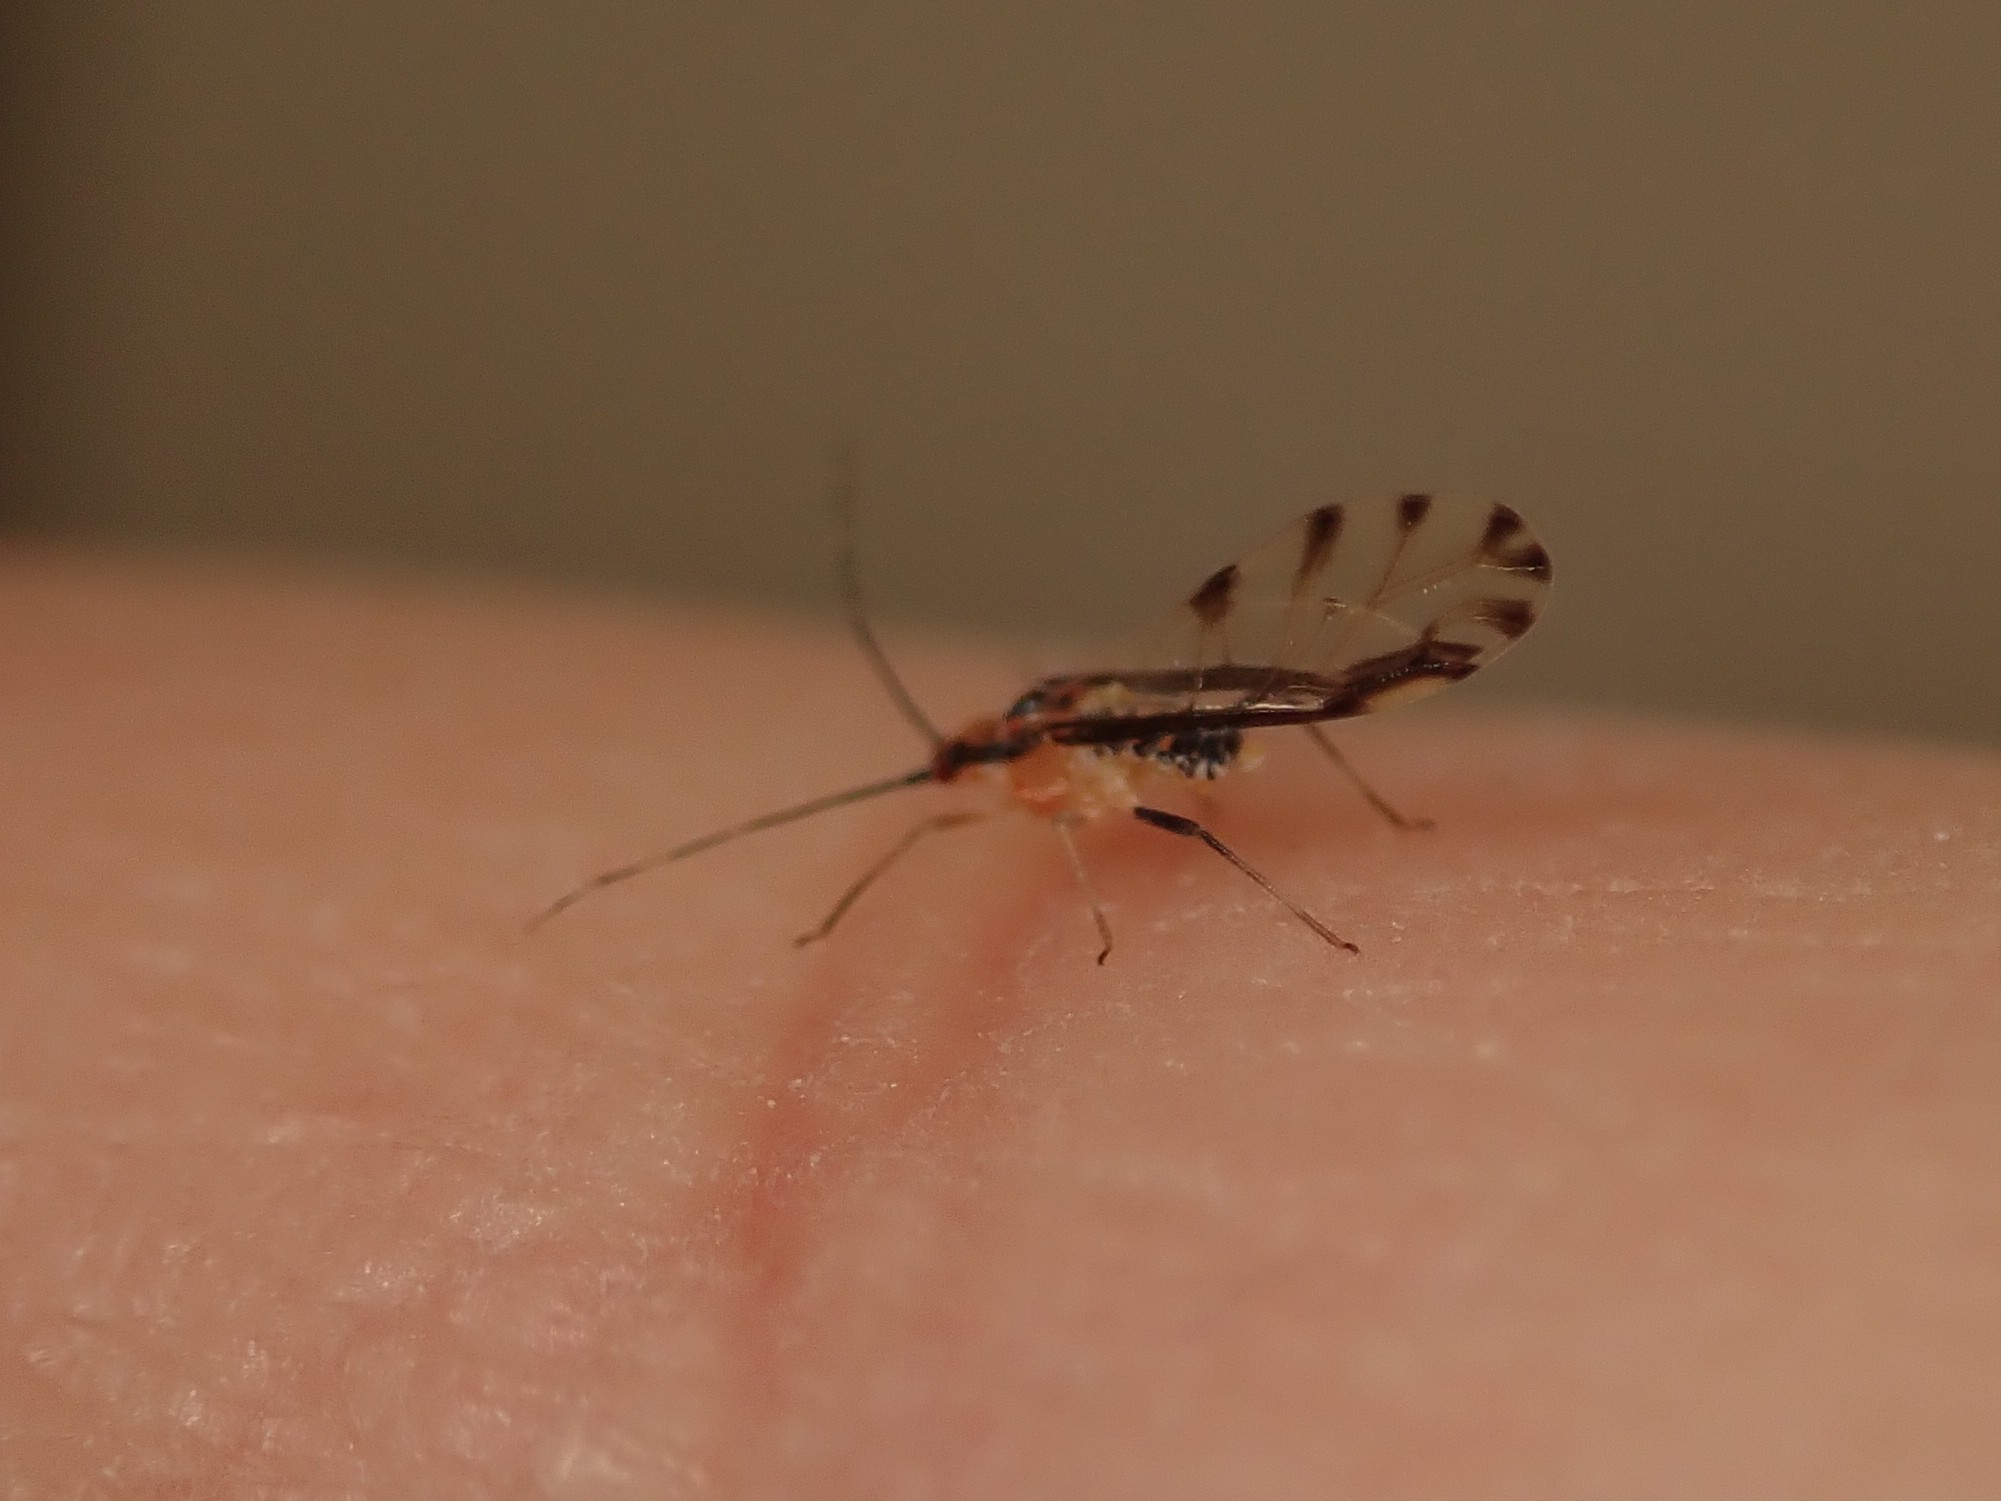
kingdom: Animalia
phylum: Arthropoda
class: Insecta
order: Hemiptera
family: Aphididae
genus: Eucallipterus
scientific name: Eucallipterus tiliae
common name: Aphid
